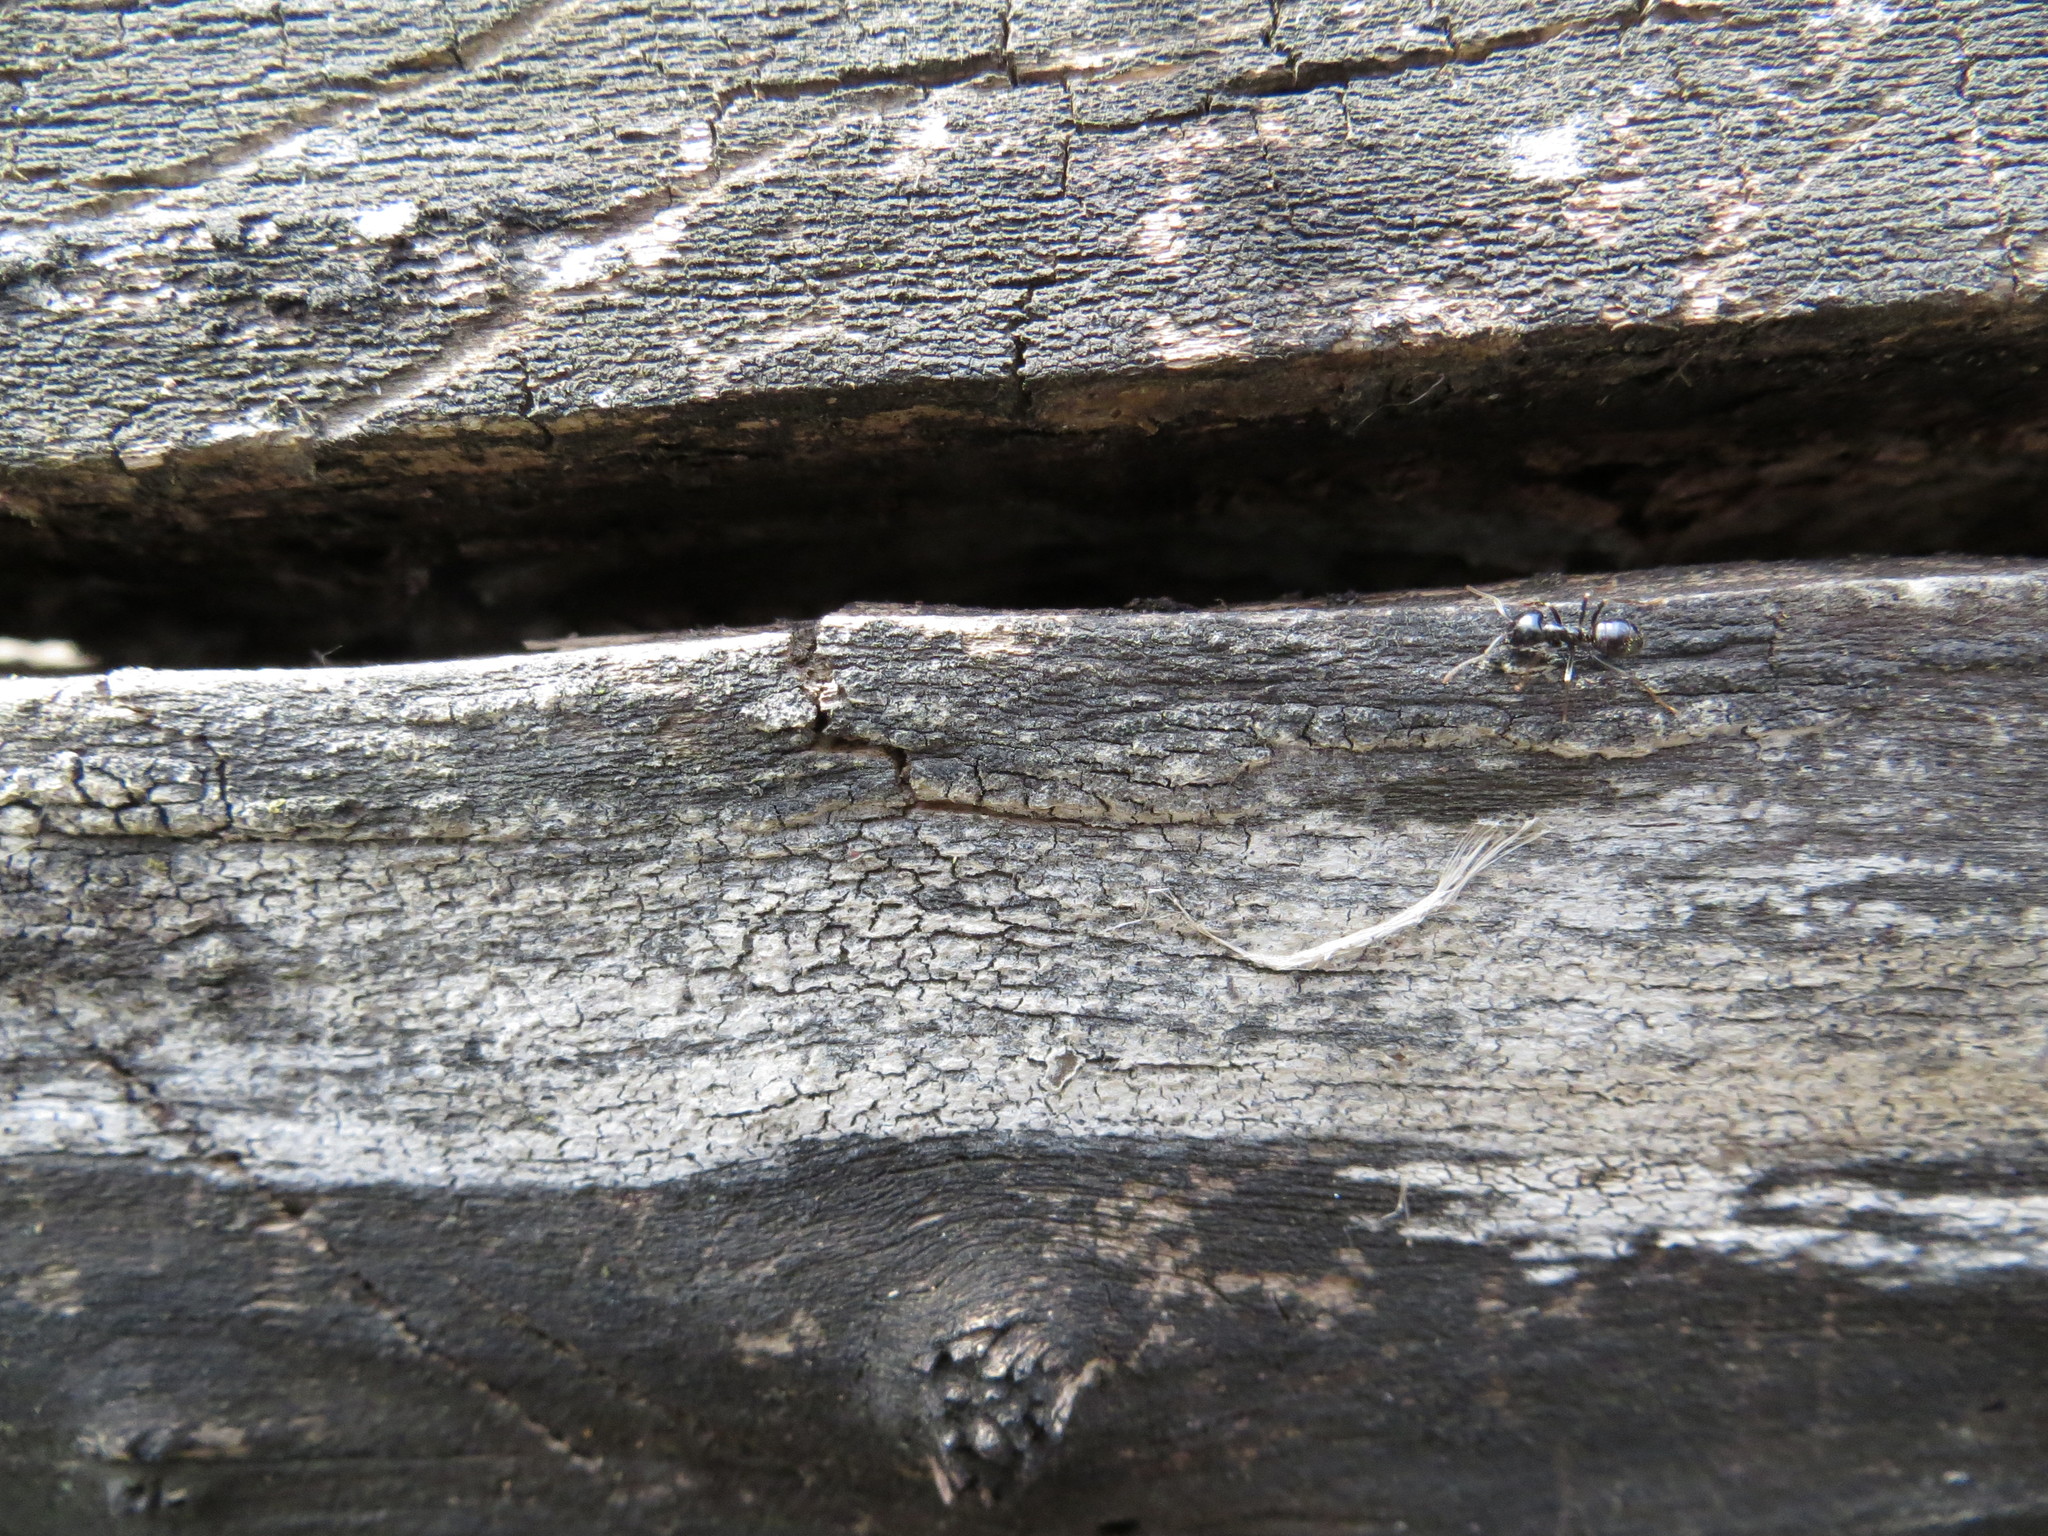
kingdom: Animalia
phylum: Arthropoda
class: Insecta
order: Hymenoptera
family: Formicidae
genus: Lasius
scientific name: Lasius fuliginosus
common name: Jet ant
